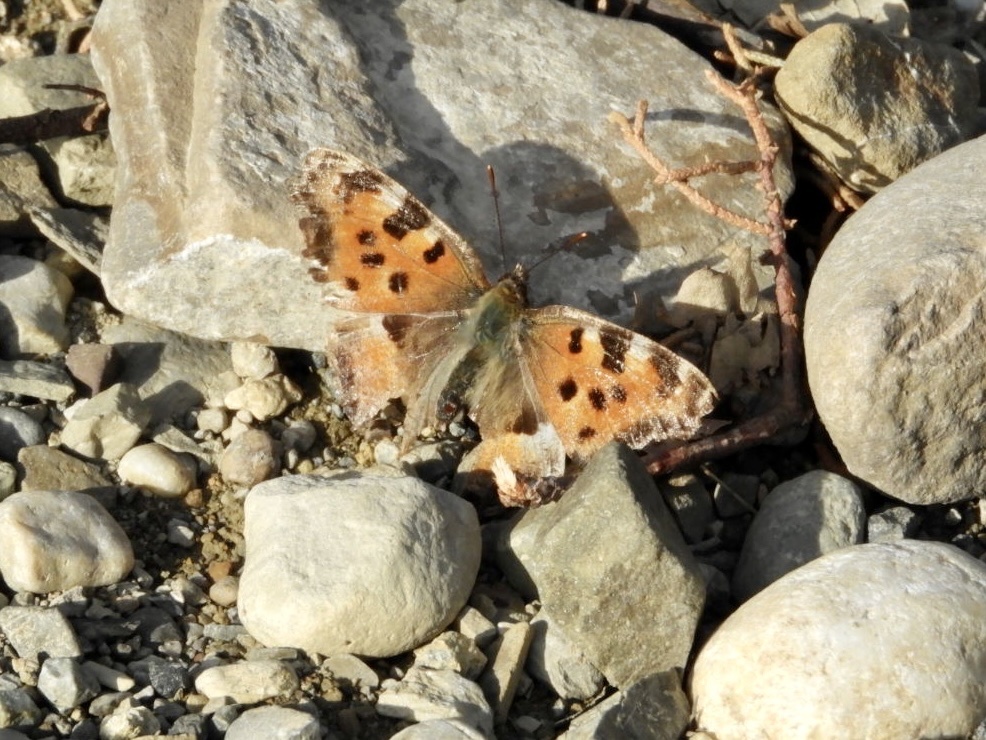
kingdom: Animalia
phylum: Arthropoda
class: Insecta
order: Lepidoptera
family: Nymphalidae
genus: Nymphalis
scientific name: Nymphalis polychloros
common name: Large tortoiseshell
